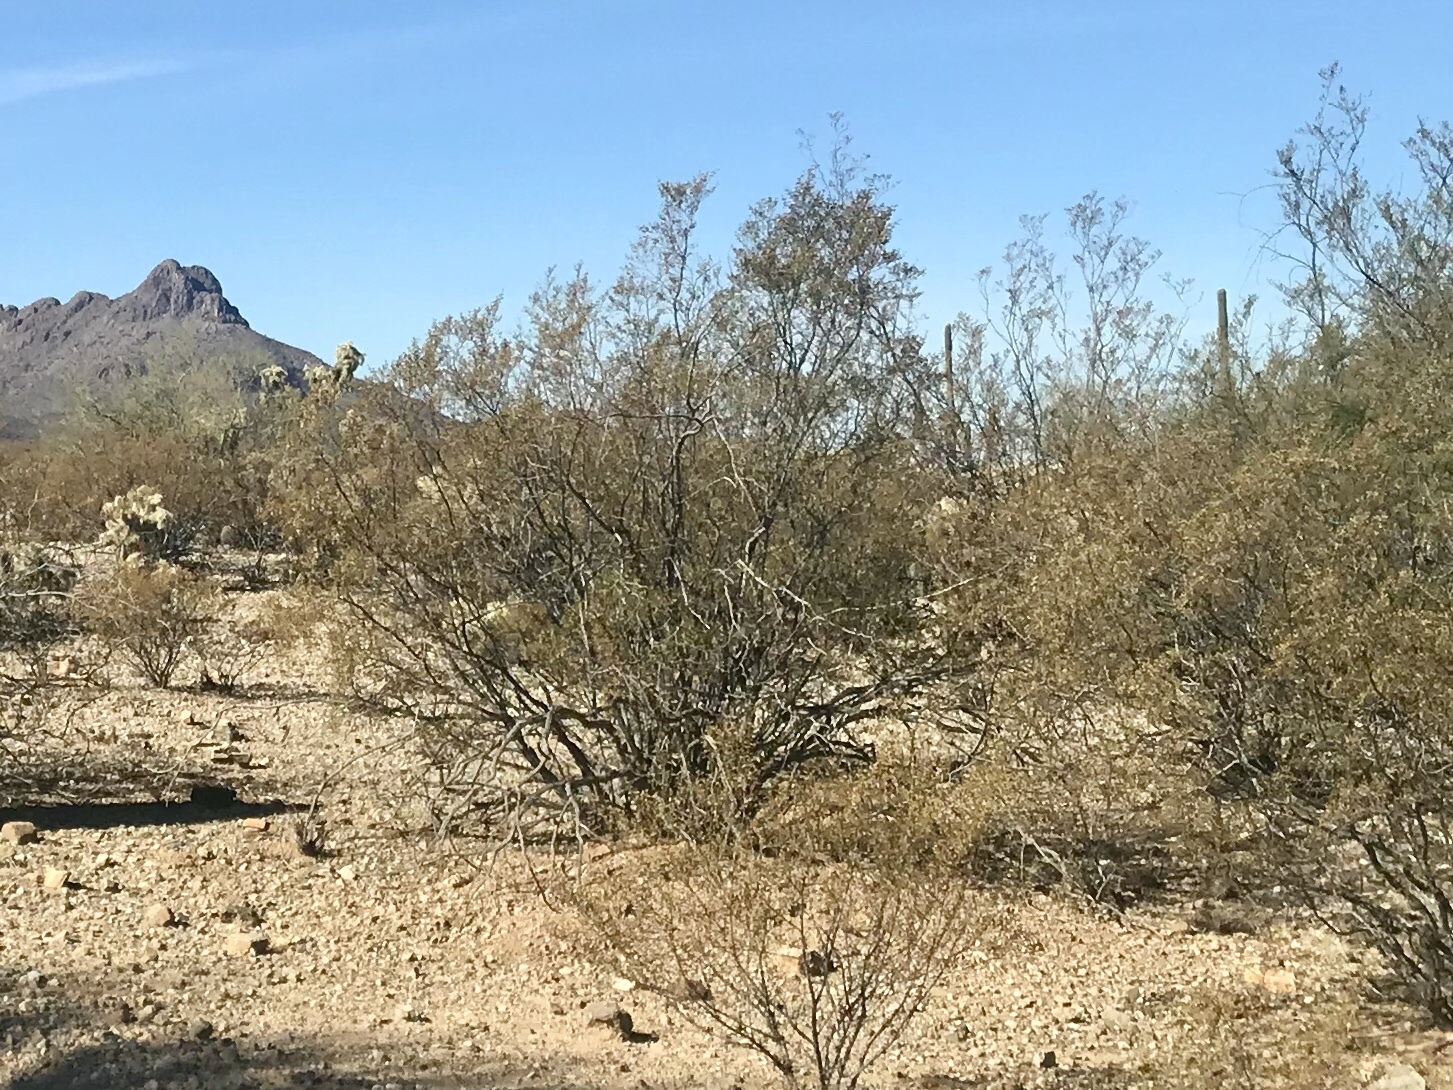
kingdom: Plantae
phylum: Tracheophyta
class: Magnoliopsida
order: Zygophyllales
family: Zygophyllaceae
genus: Larrea
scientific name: Larrea tridentata
